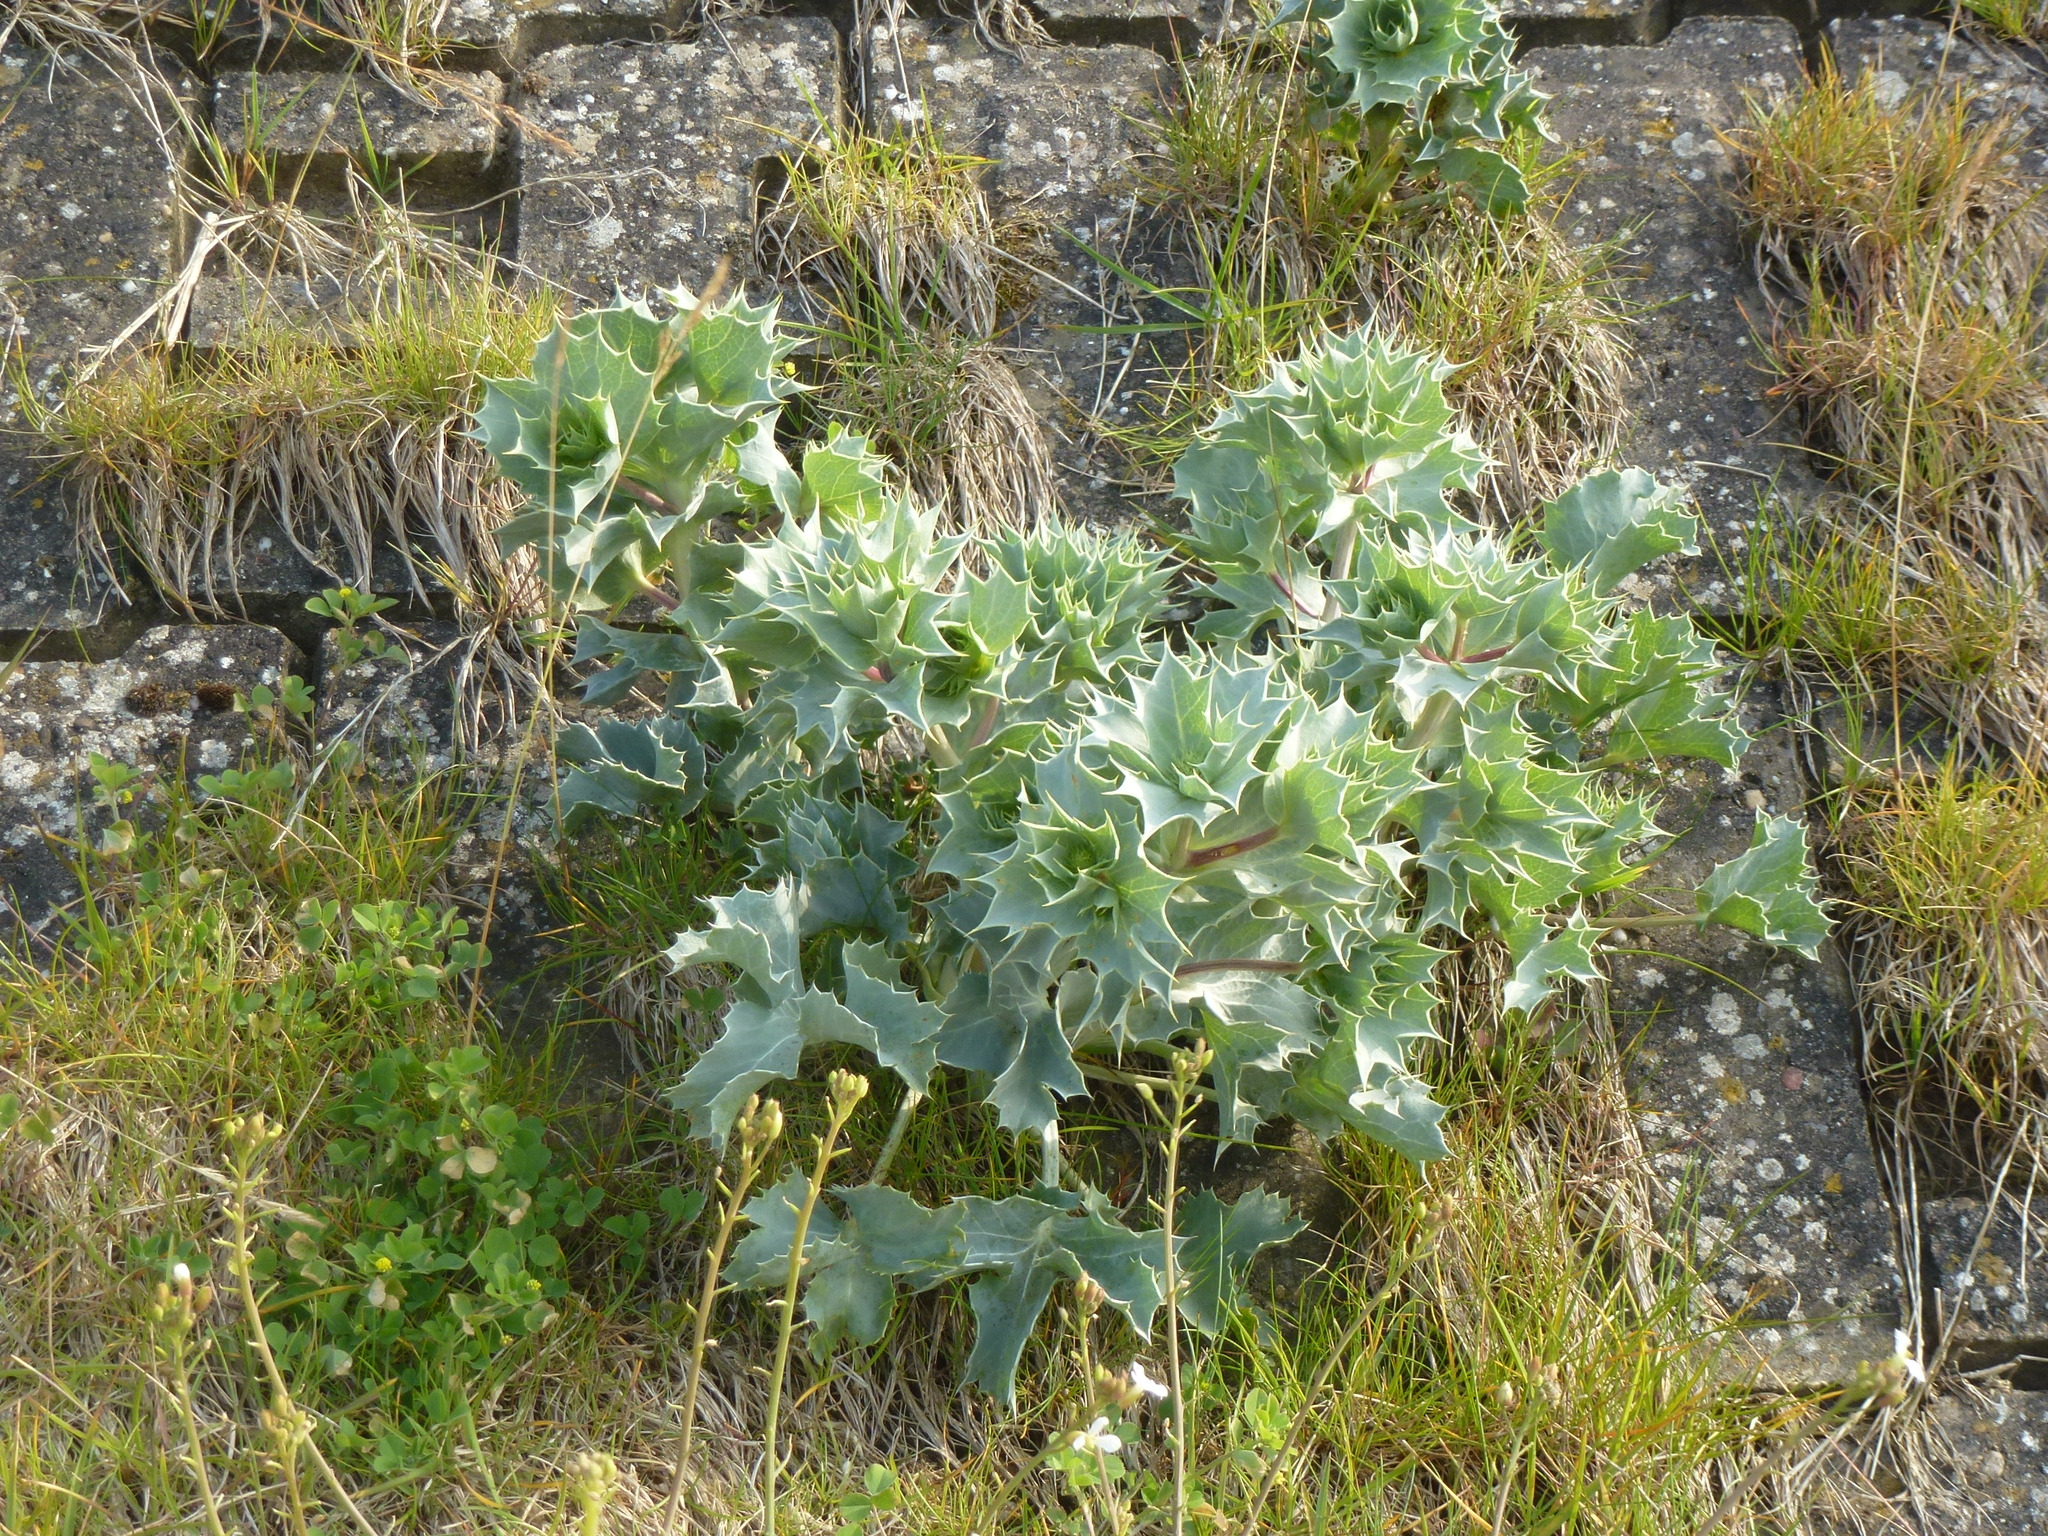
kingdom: Plantae
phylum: Tracheophyta
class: Magnoliopsida
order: Apiales
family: Apiaceae
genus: Eryngium
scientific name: Eryngium maritimum
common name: Sea-holly
